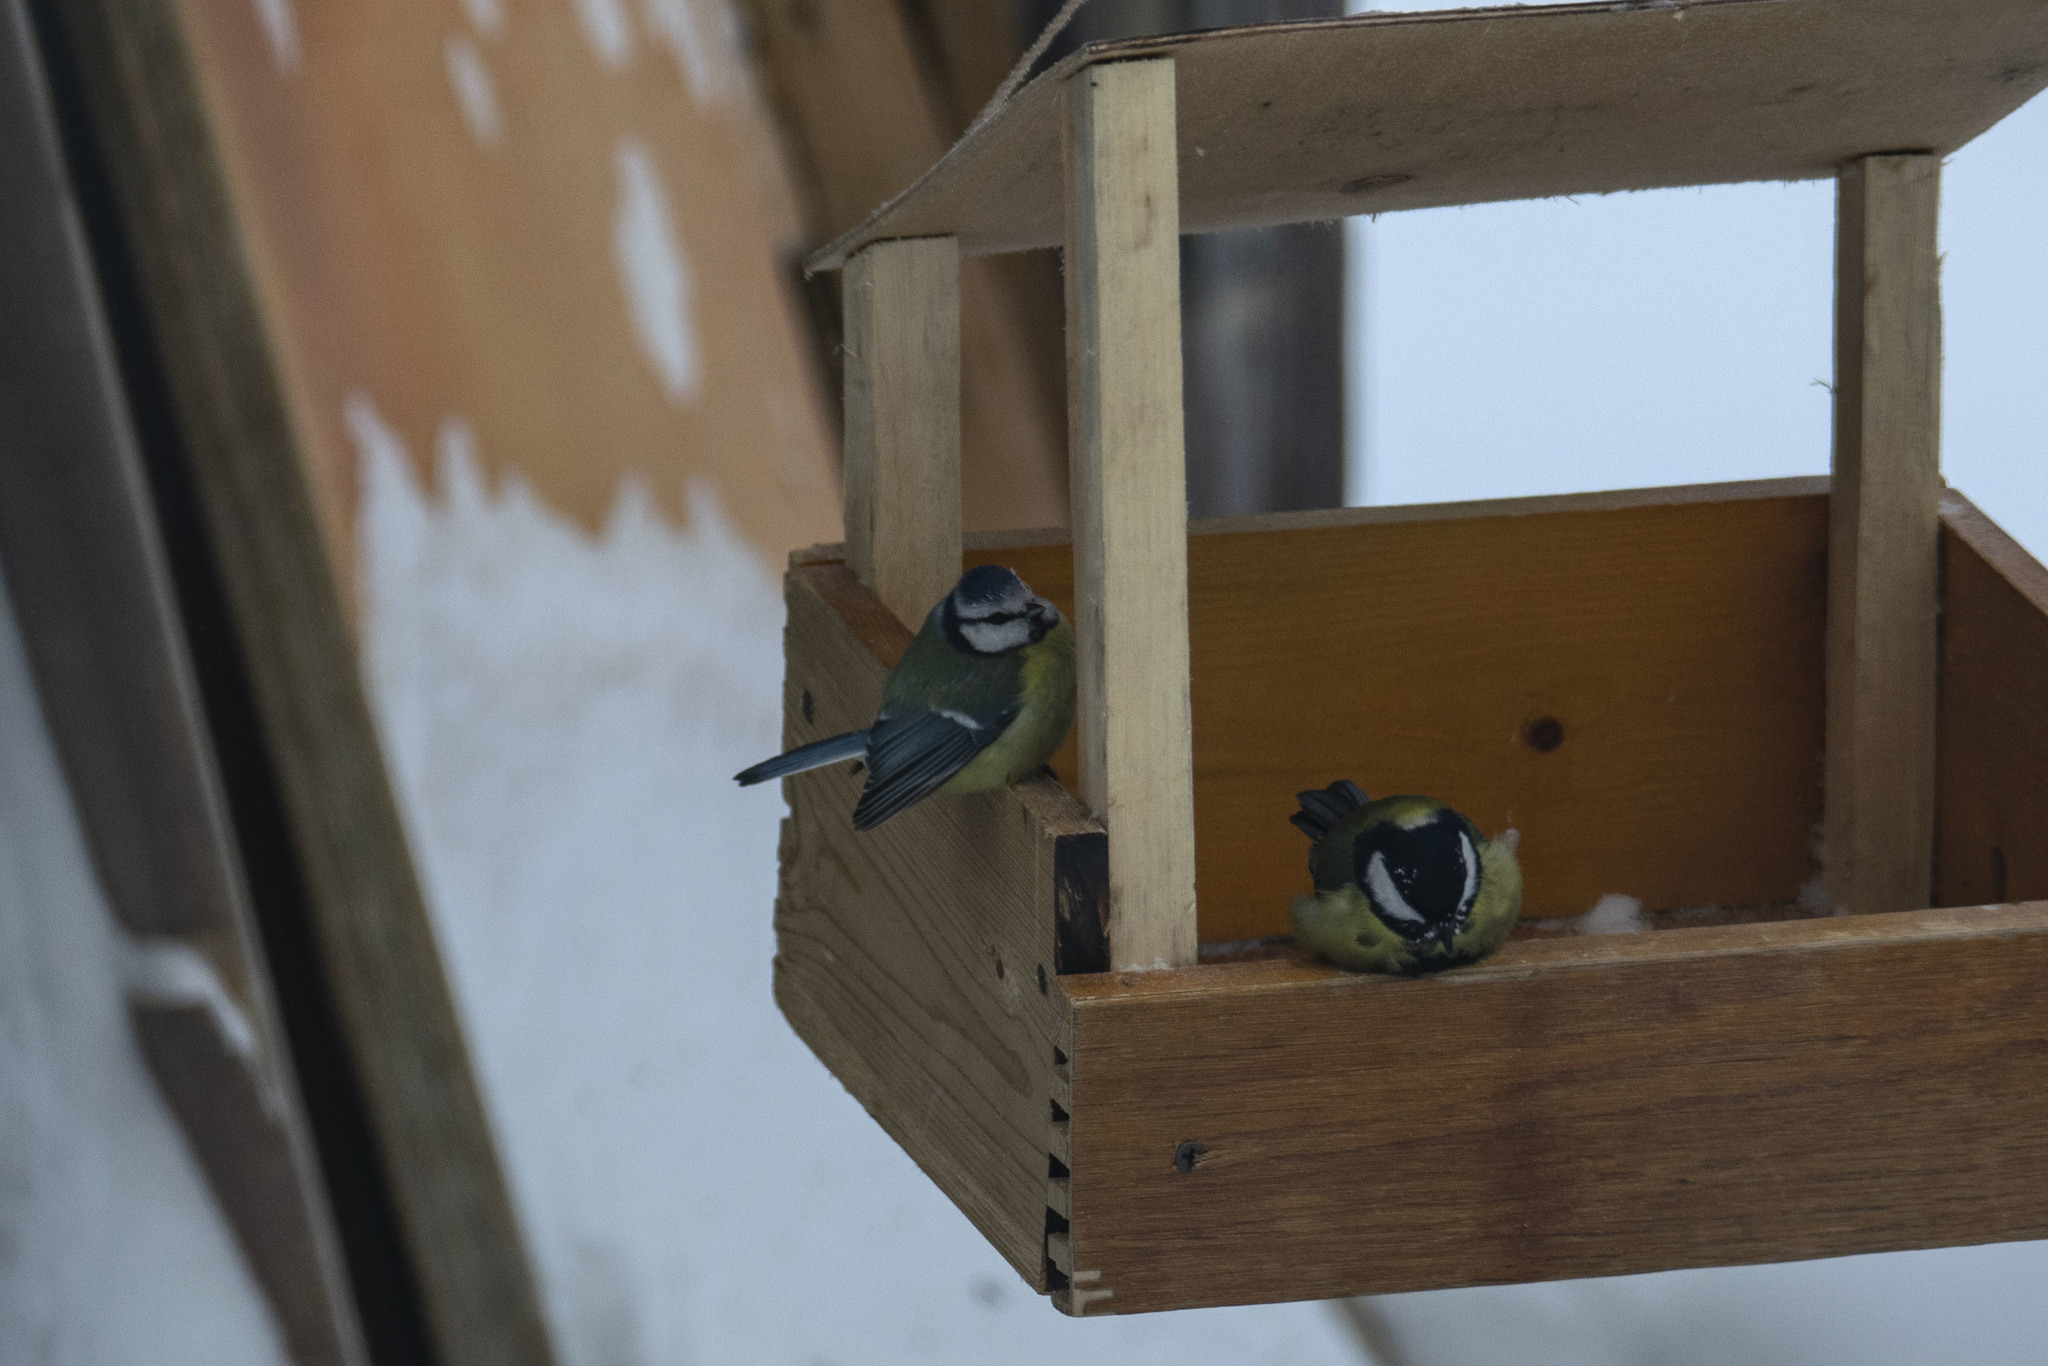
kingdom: Animalia
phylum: Chordata
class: Aves
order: Passeriformes
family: Paridae
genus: Cyanistes
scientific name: Cyanistes caeruleus
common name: Eurasian blue tit
